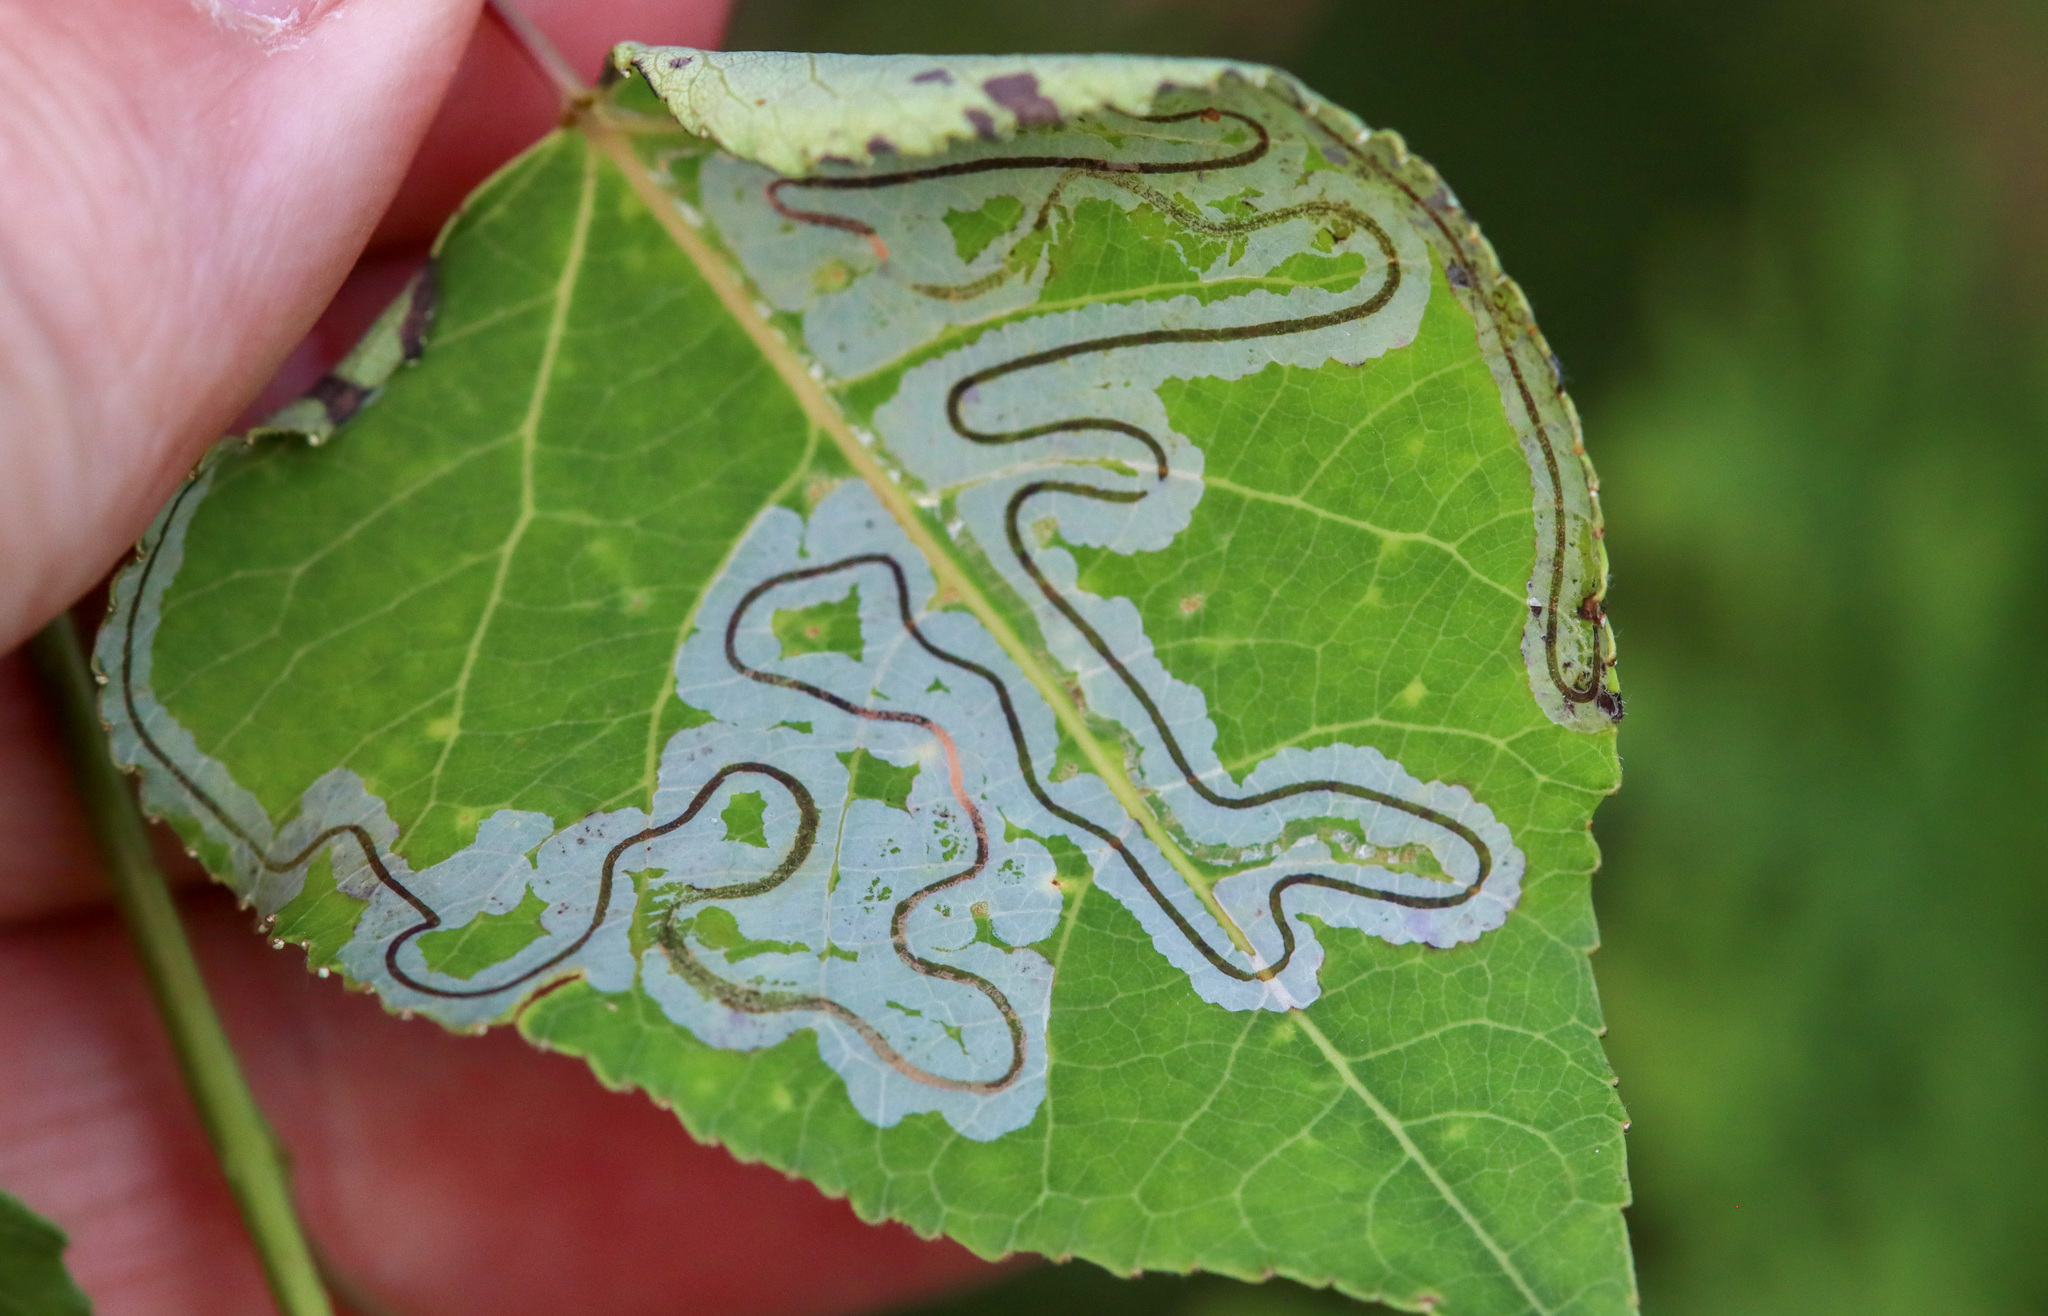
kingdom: Animalia
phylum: Arthropoda
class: Insecta
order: Lepidoptera
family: Gracillariidae
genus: Phyllocnistis
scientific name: Phyllocnistis populiella
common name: Aspen serpentine leafminer moth
